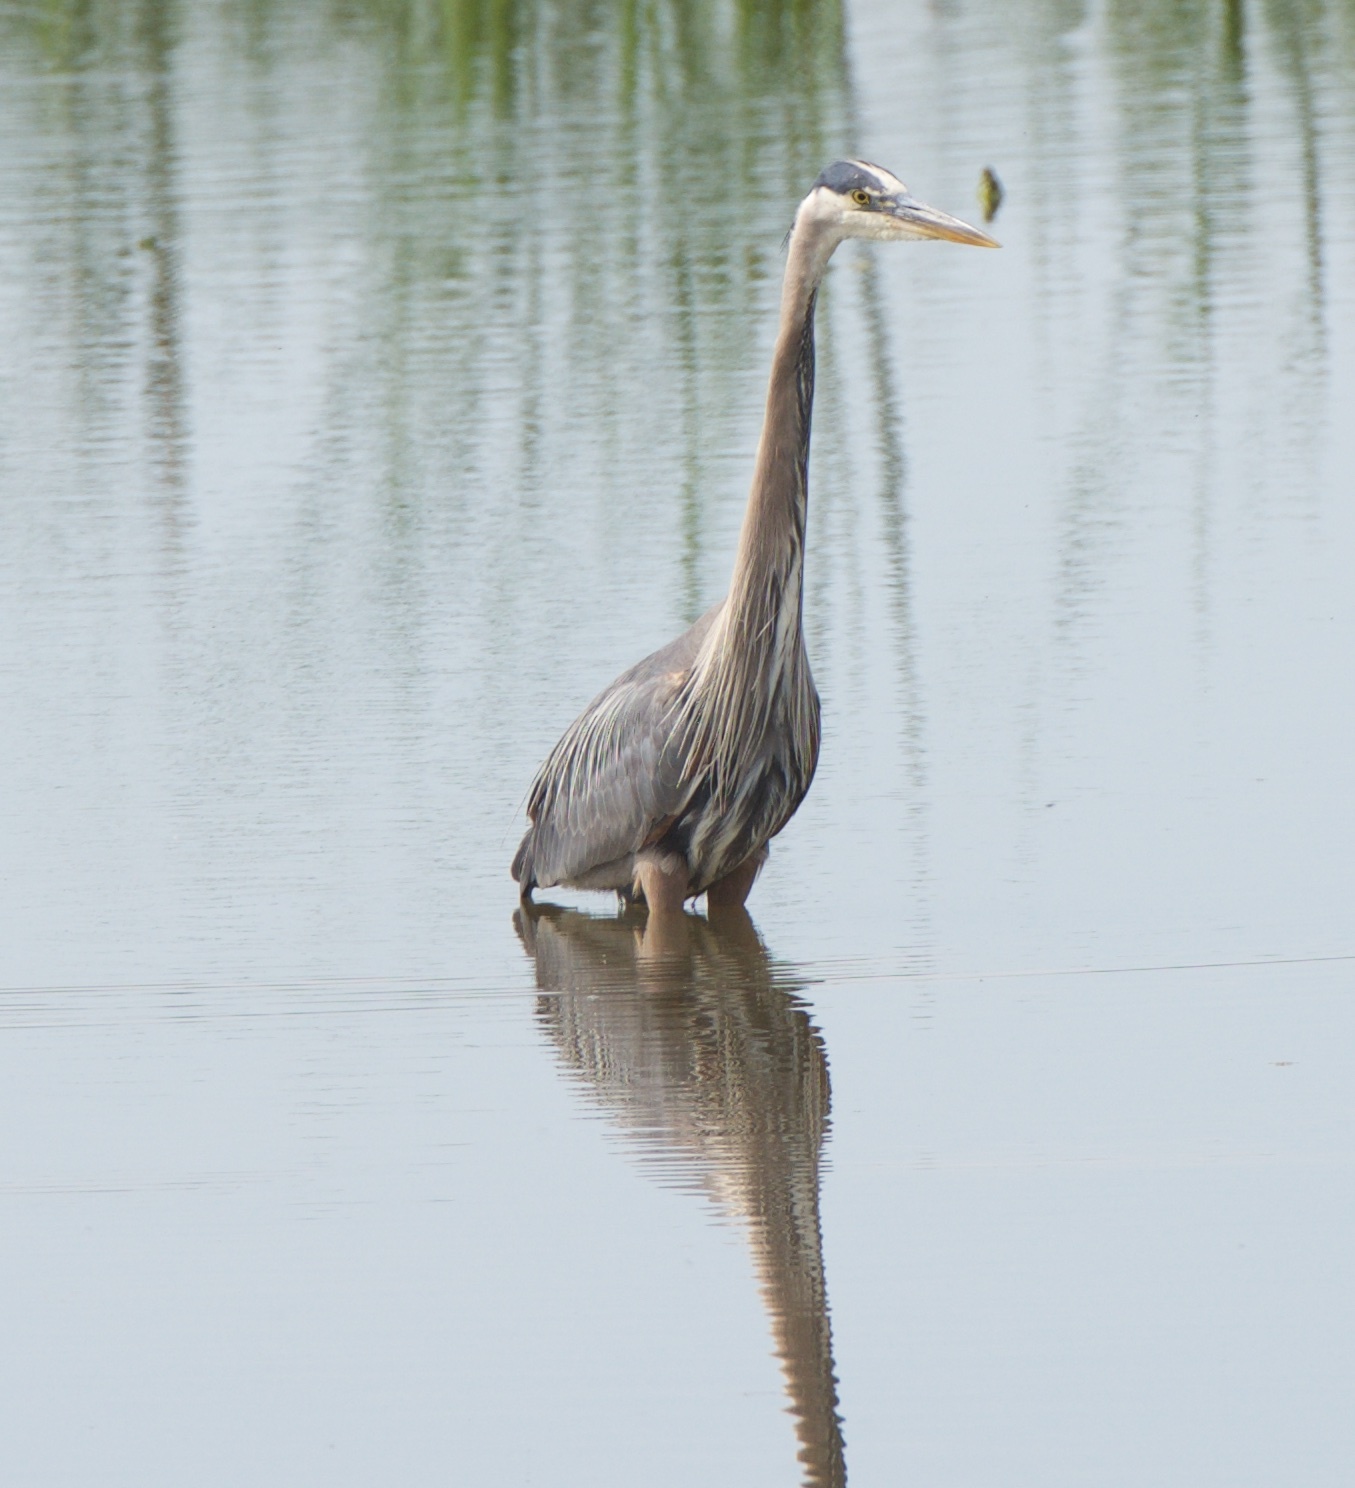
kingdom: Animalia
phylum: Chordata
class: Aves
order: Pelecaniformes
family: Ardeidae
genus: Ardea
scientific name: Ardea herodias
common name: Great blue heron
